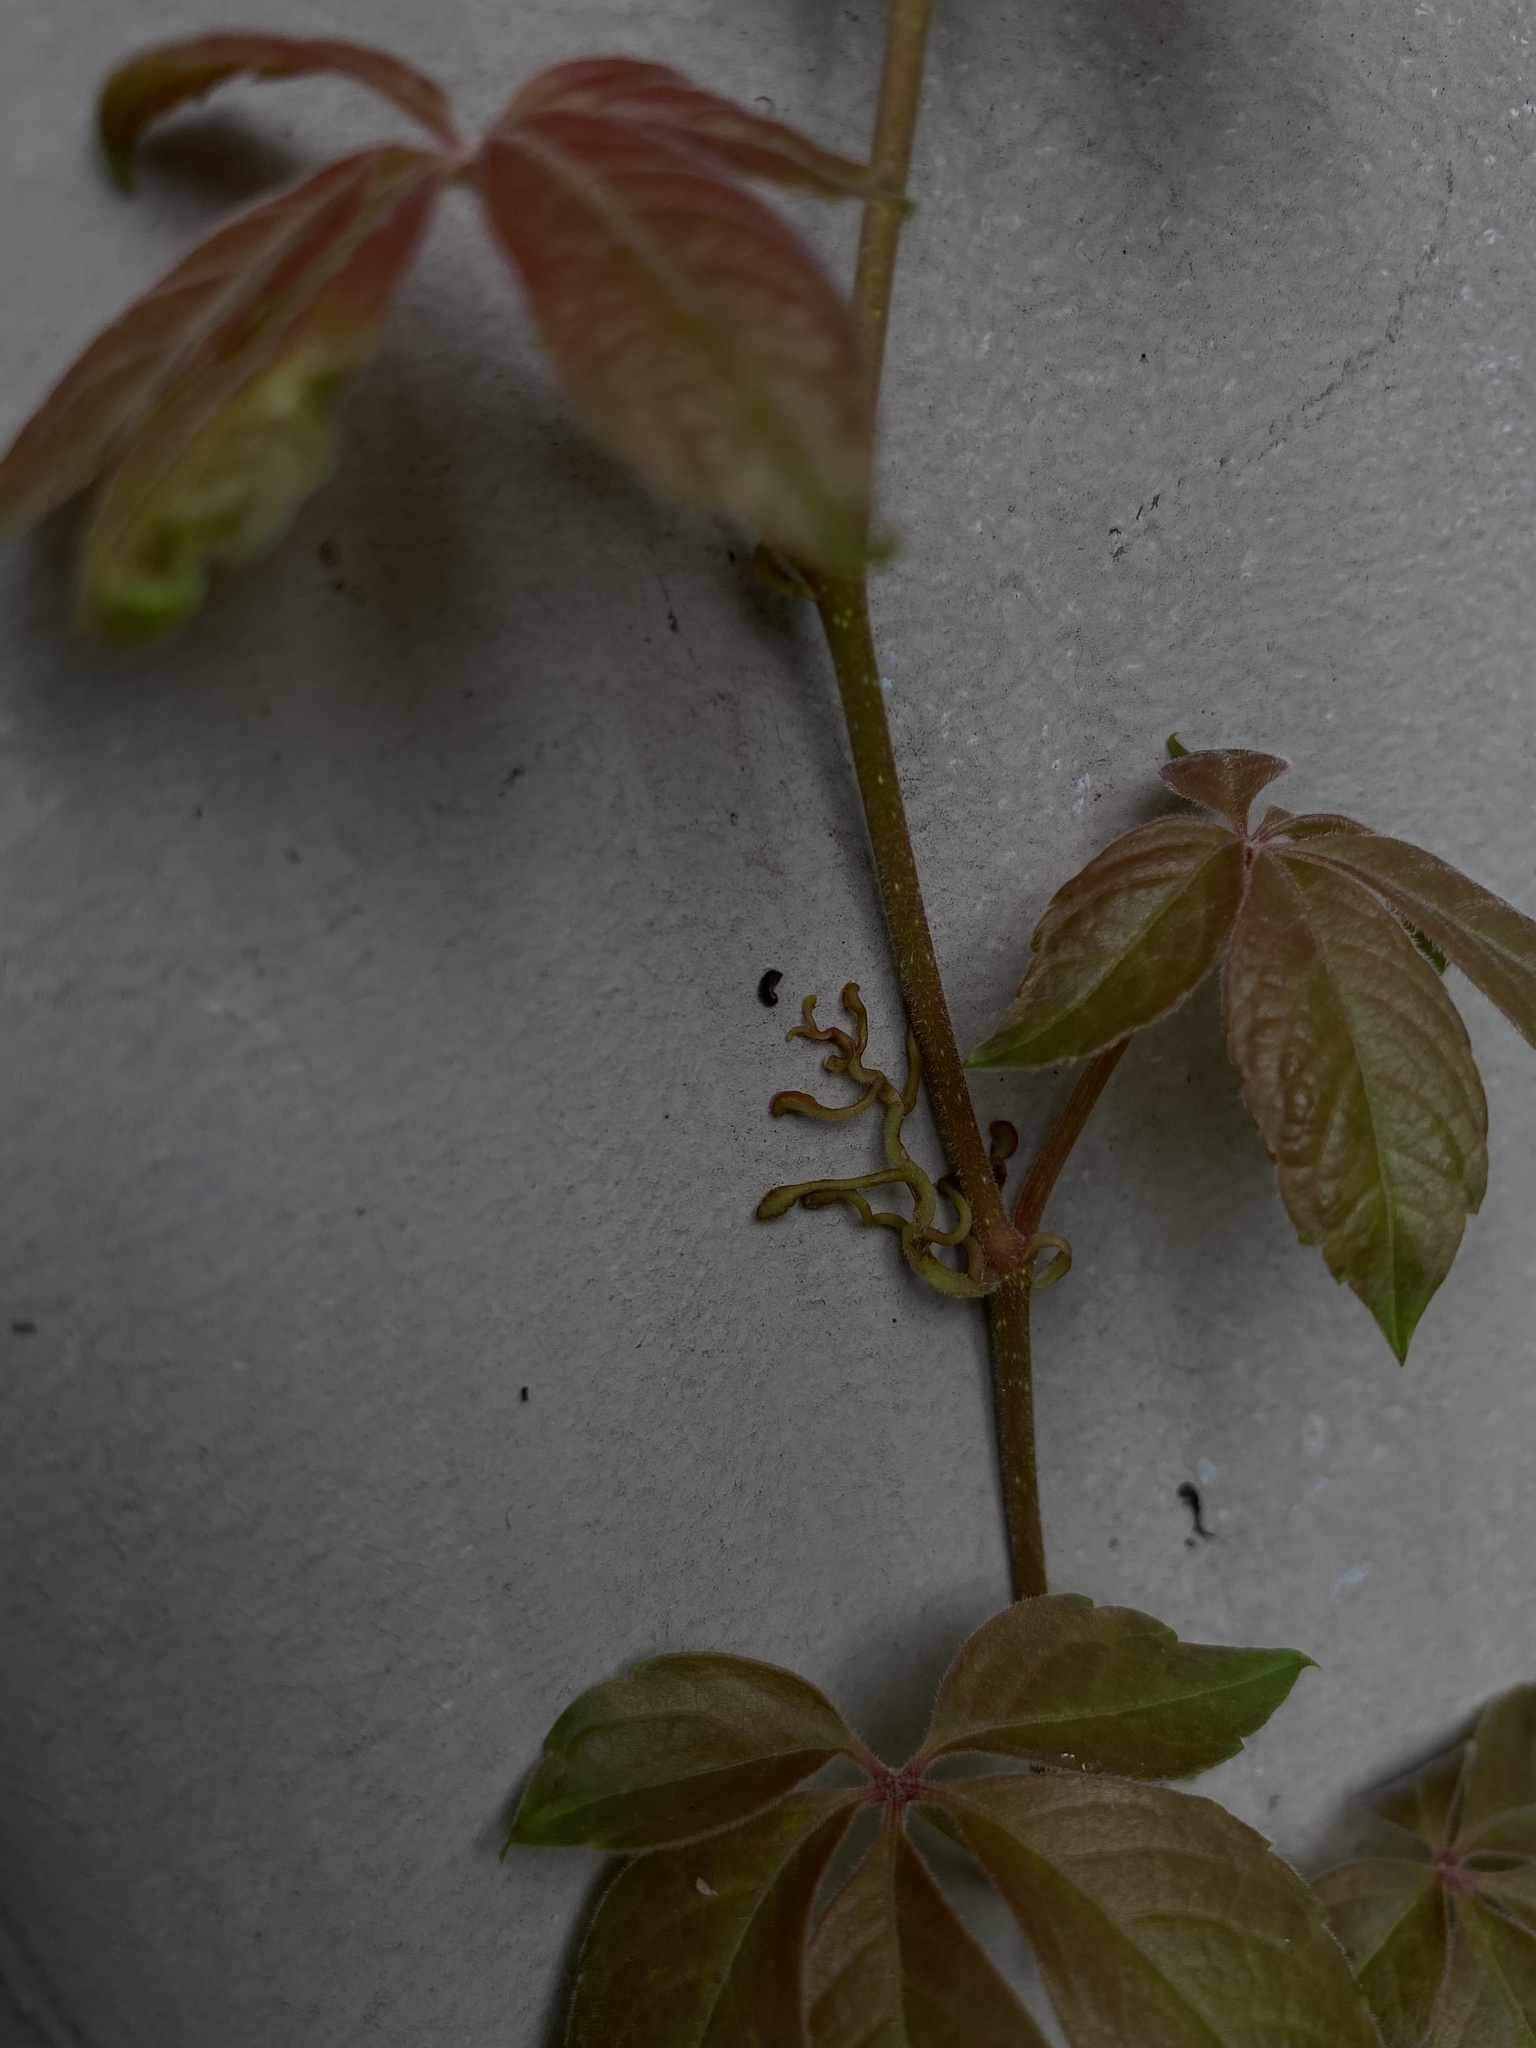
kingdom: Plantae
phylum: Tracheophyta
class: Magnoliopsida
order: Vitales
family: Vitaceae
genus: Parthenocissus
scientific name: Parthenocissus quinquefolia
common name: Virginia-creeper
